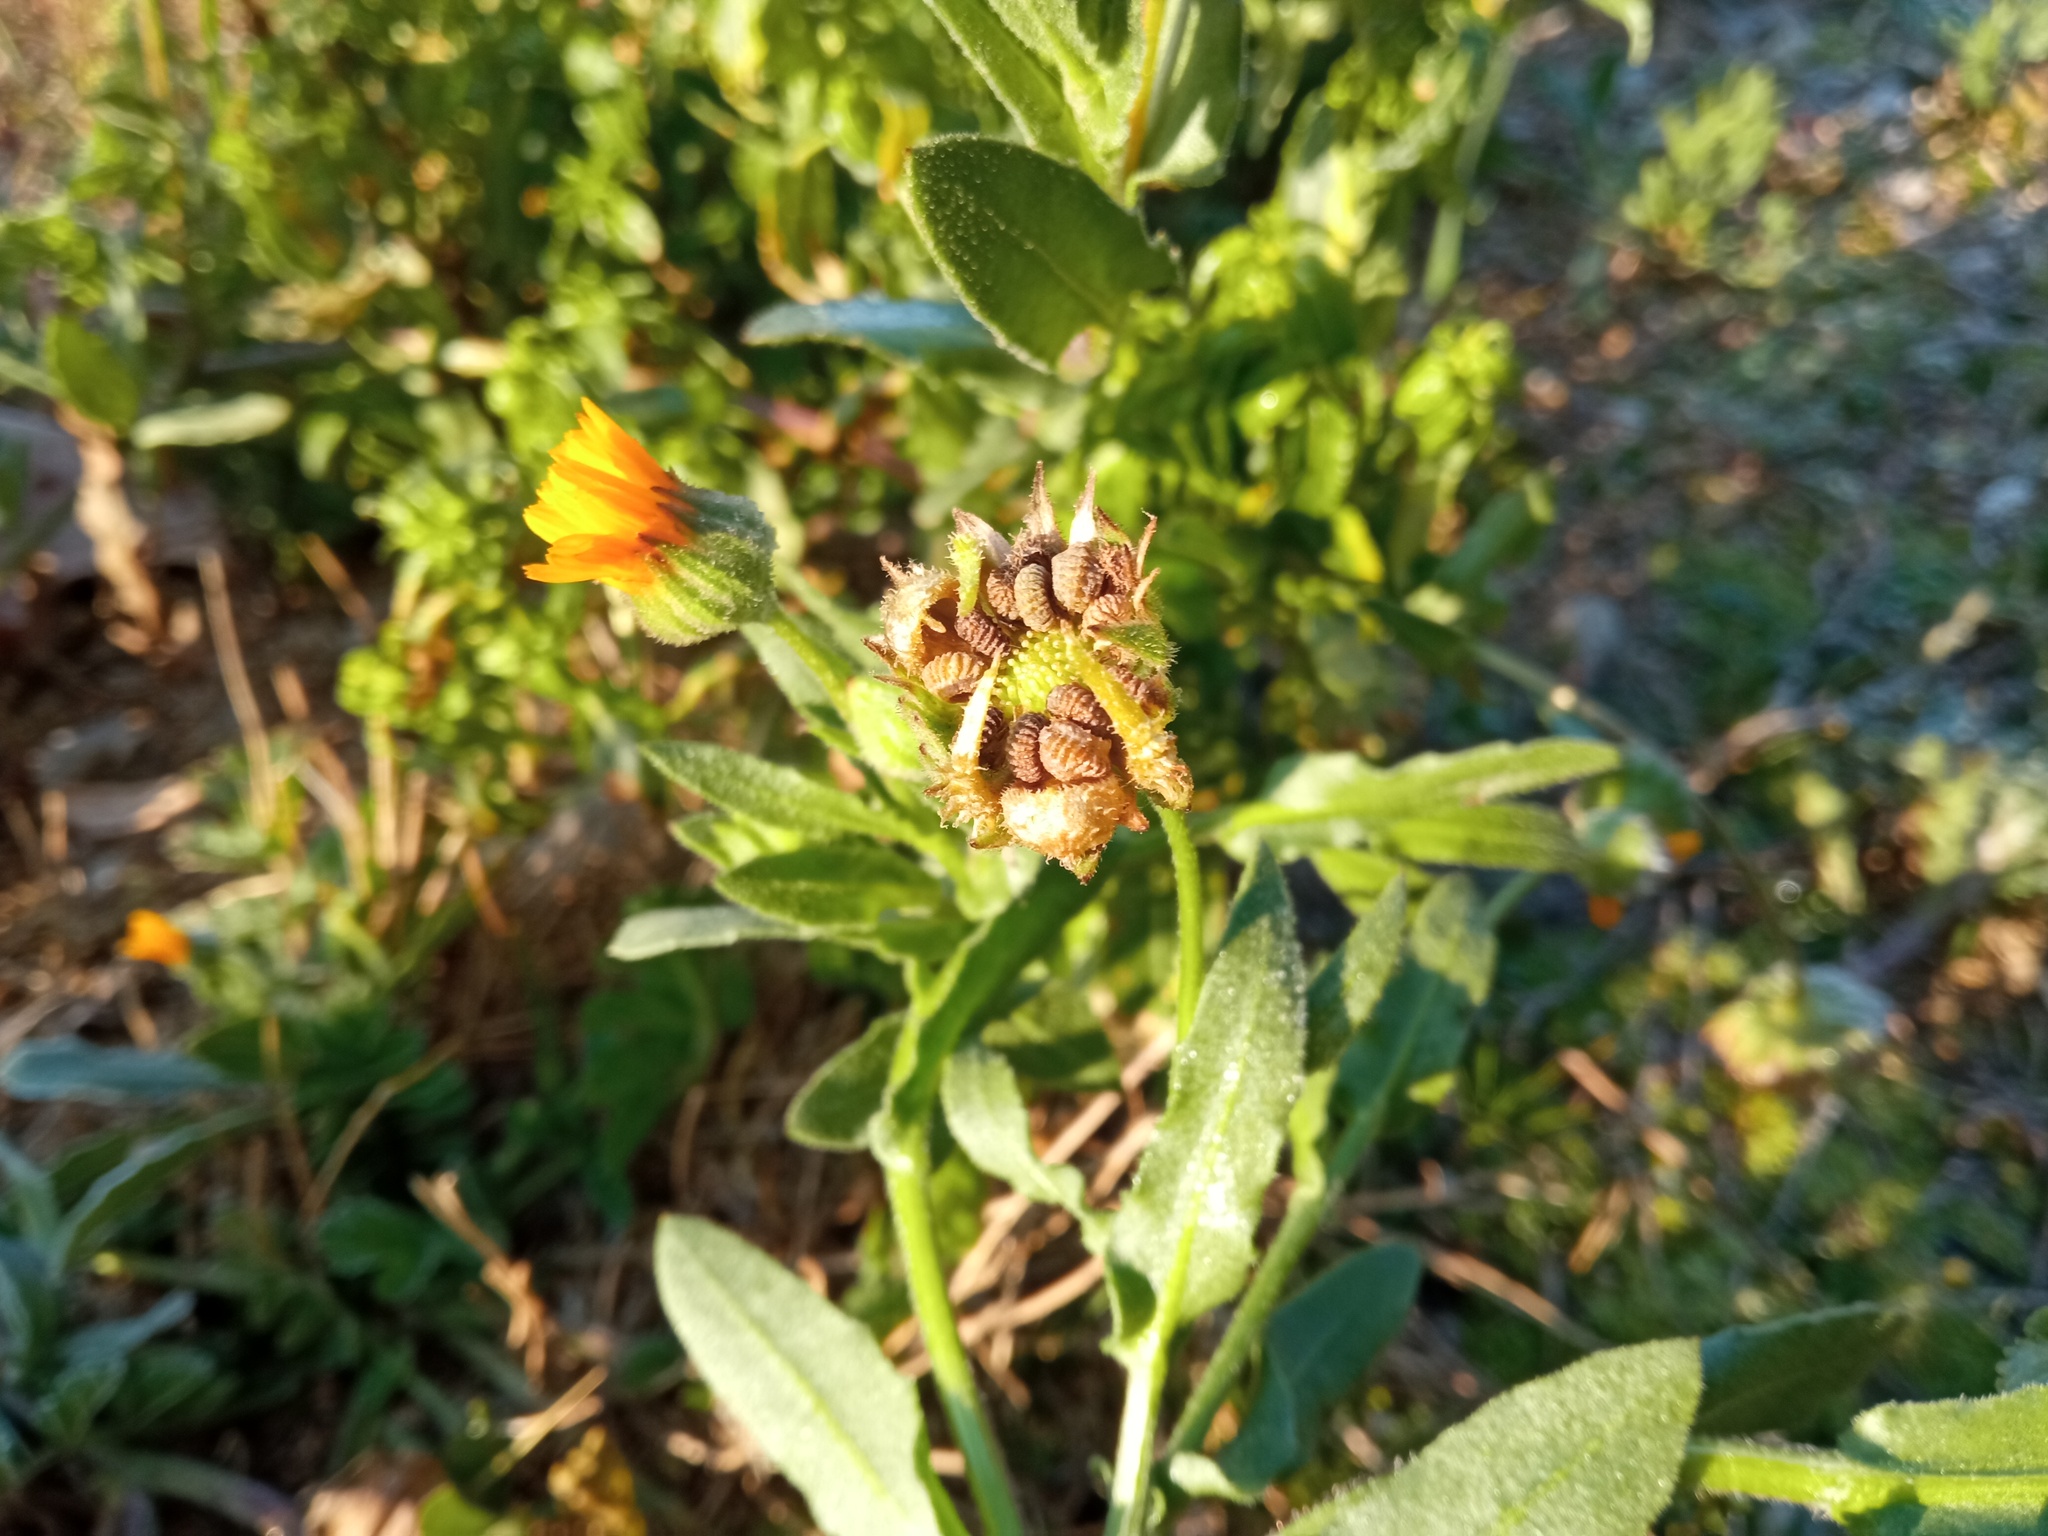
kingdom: Plantae
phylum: Tracheophyta
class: Magnoliopsida
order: Asterales
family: Asteraceae
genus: Calendula
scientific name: Calendula arvensis
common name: Field marigold
